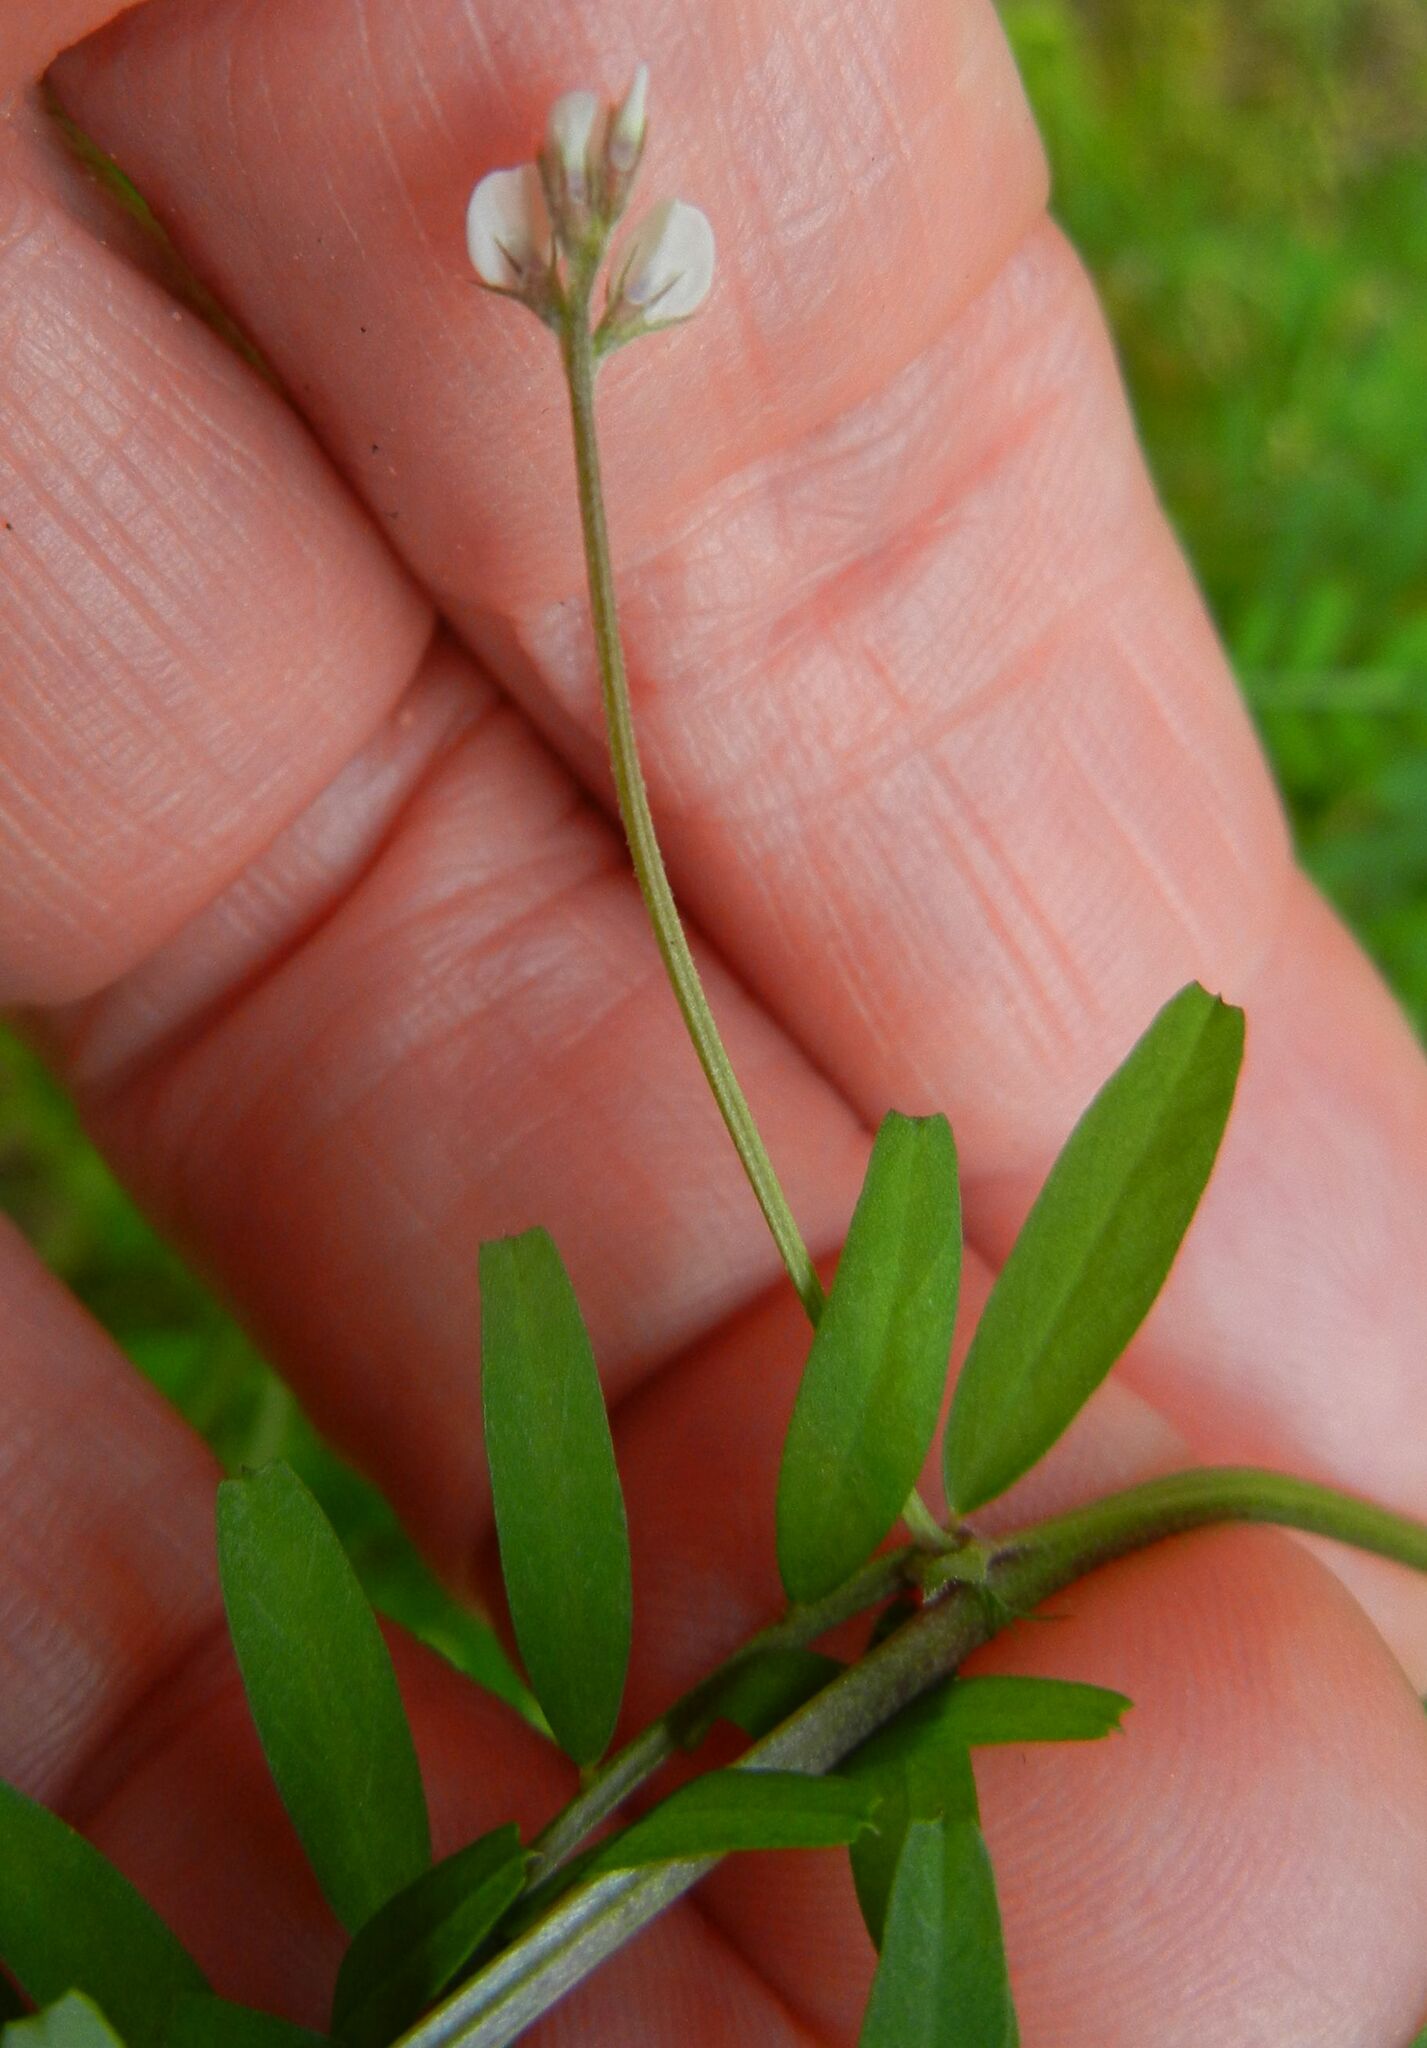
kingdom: Plantae
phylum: Tracheophyta
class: Magnoliopsida
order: Fabales
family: Fabaceae
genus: Vicia
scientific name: Vicia hirsuta
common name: Tiny vetch
